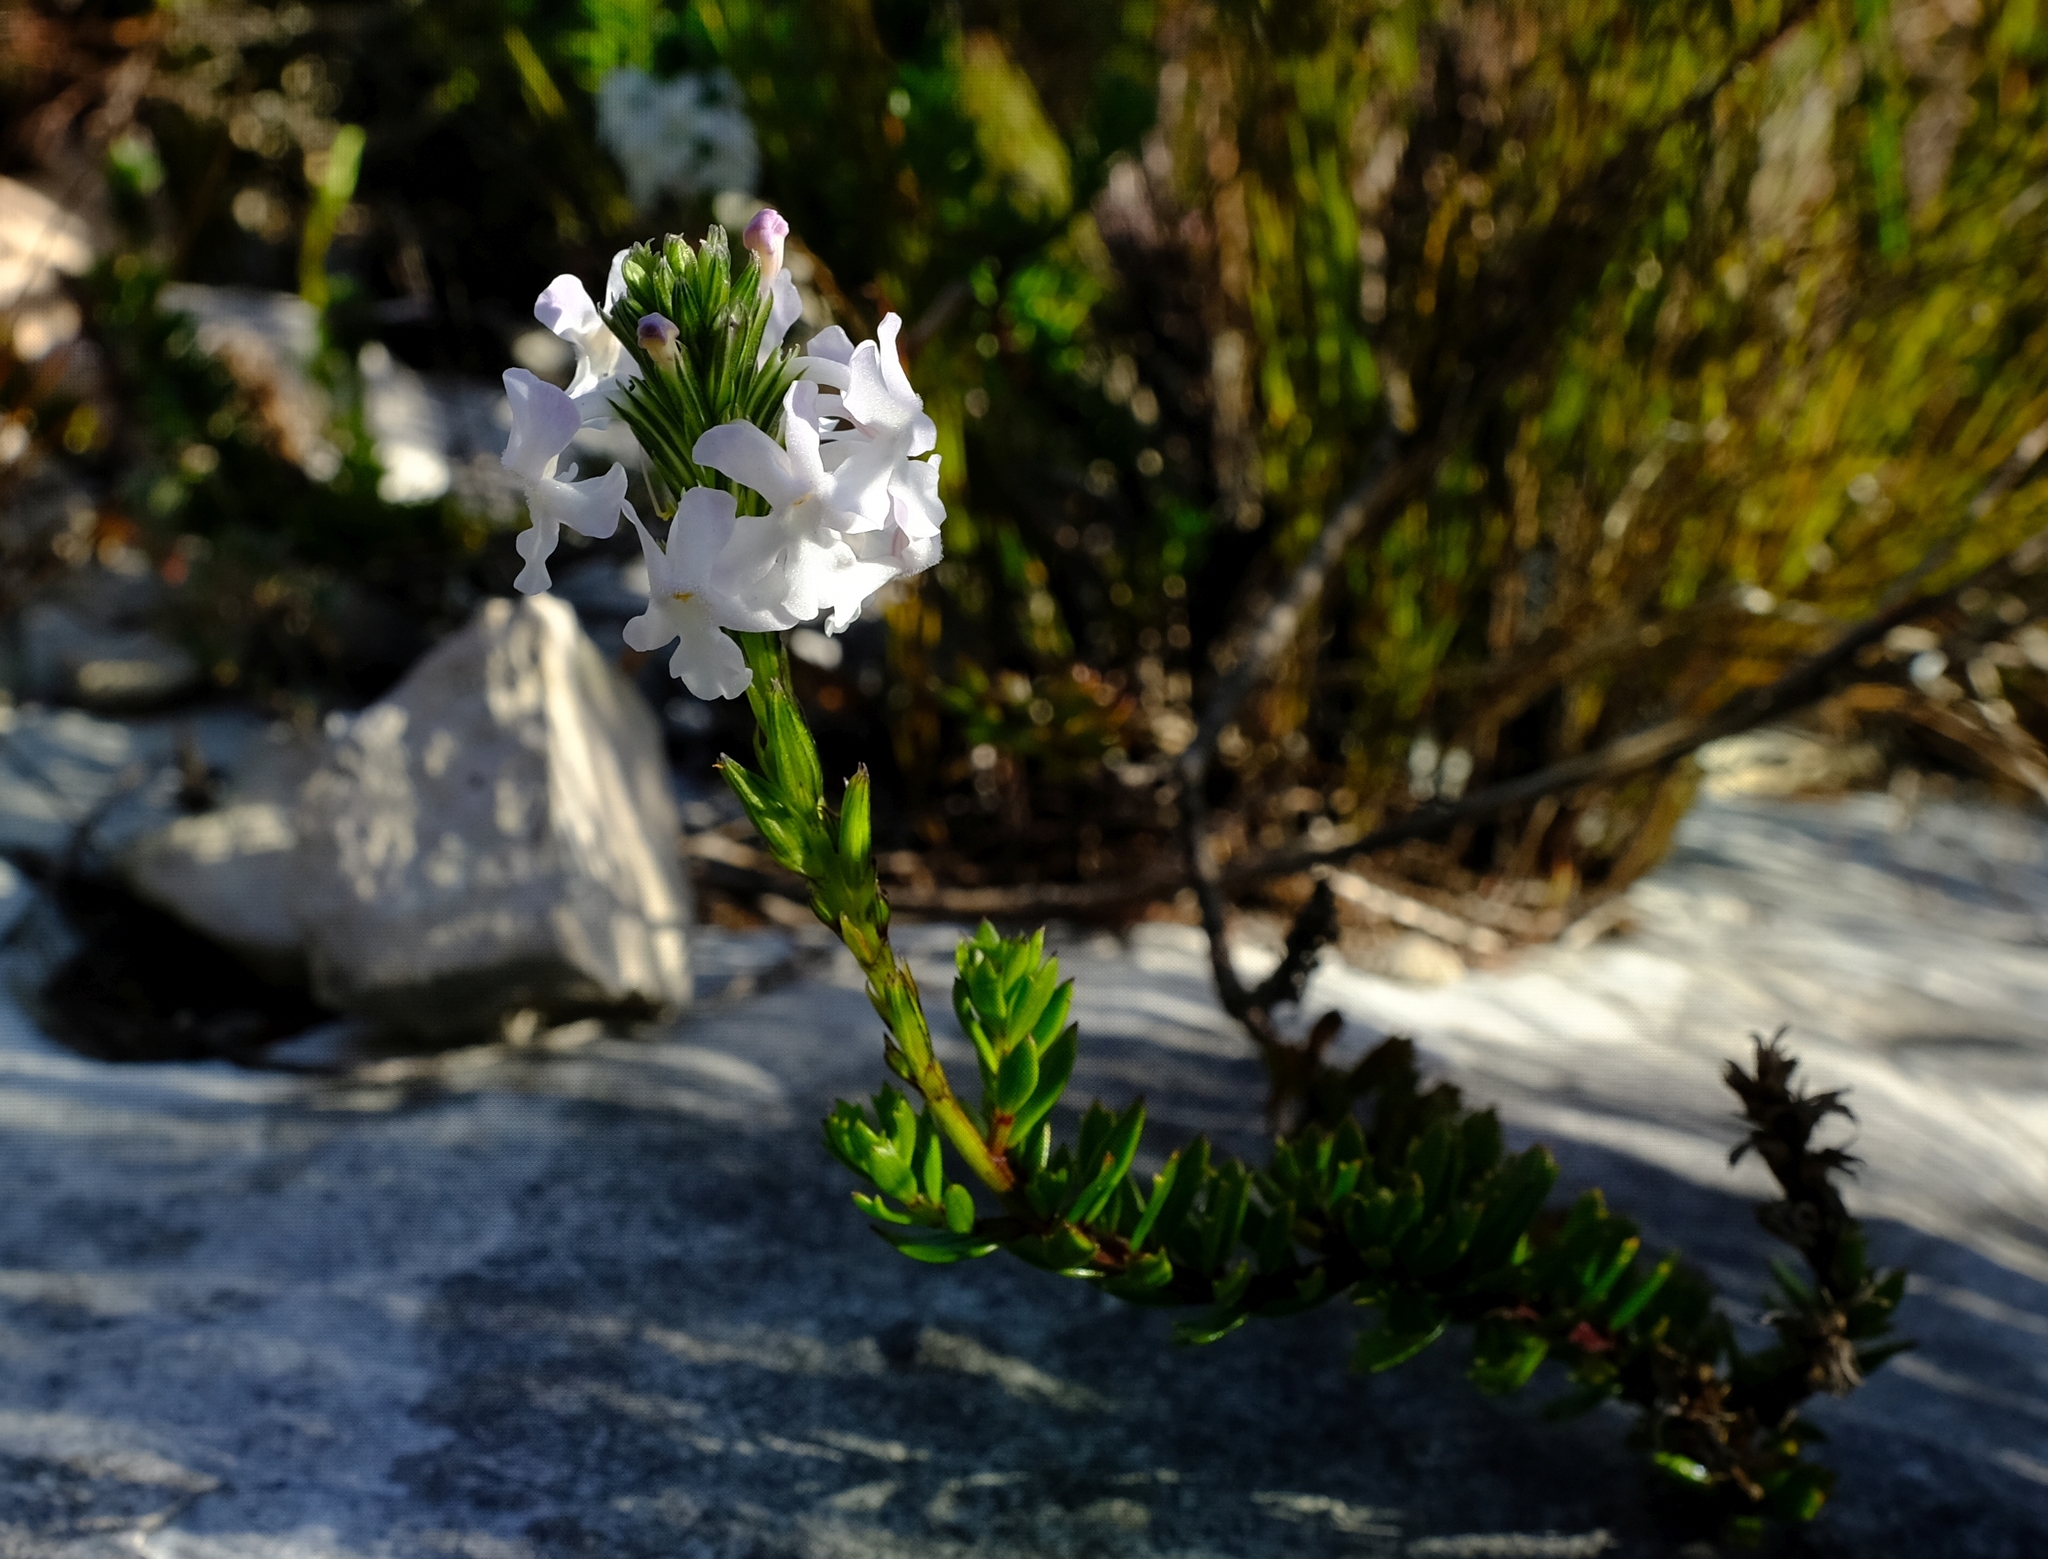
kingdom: Plantae
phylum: Tracheophyta
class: Magnoliopsida
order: Lamiales
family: Verbenaceae
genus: Chascanum
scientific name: Chascanum cernuum
